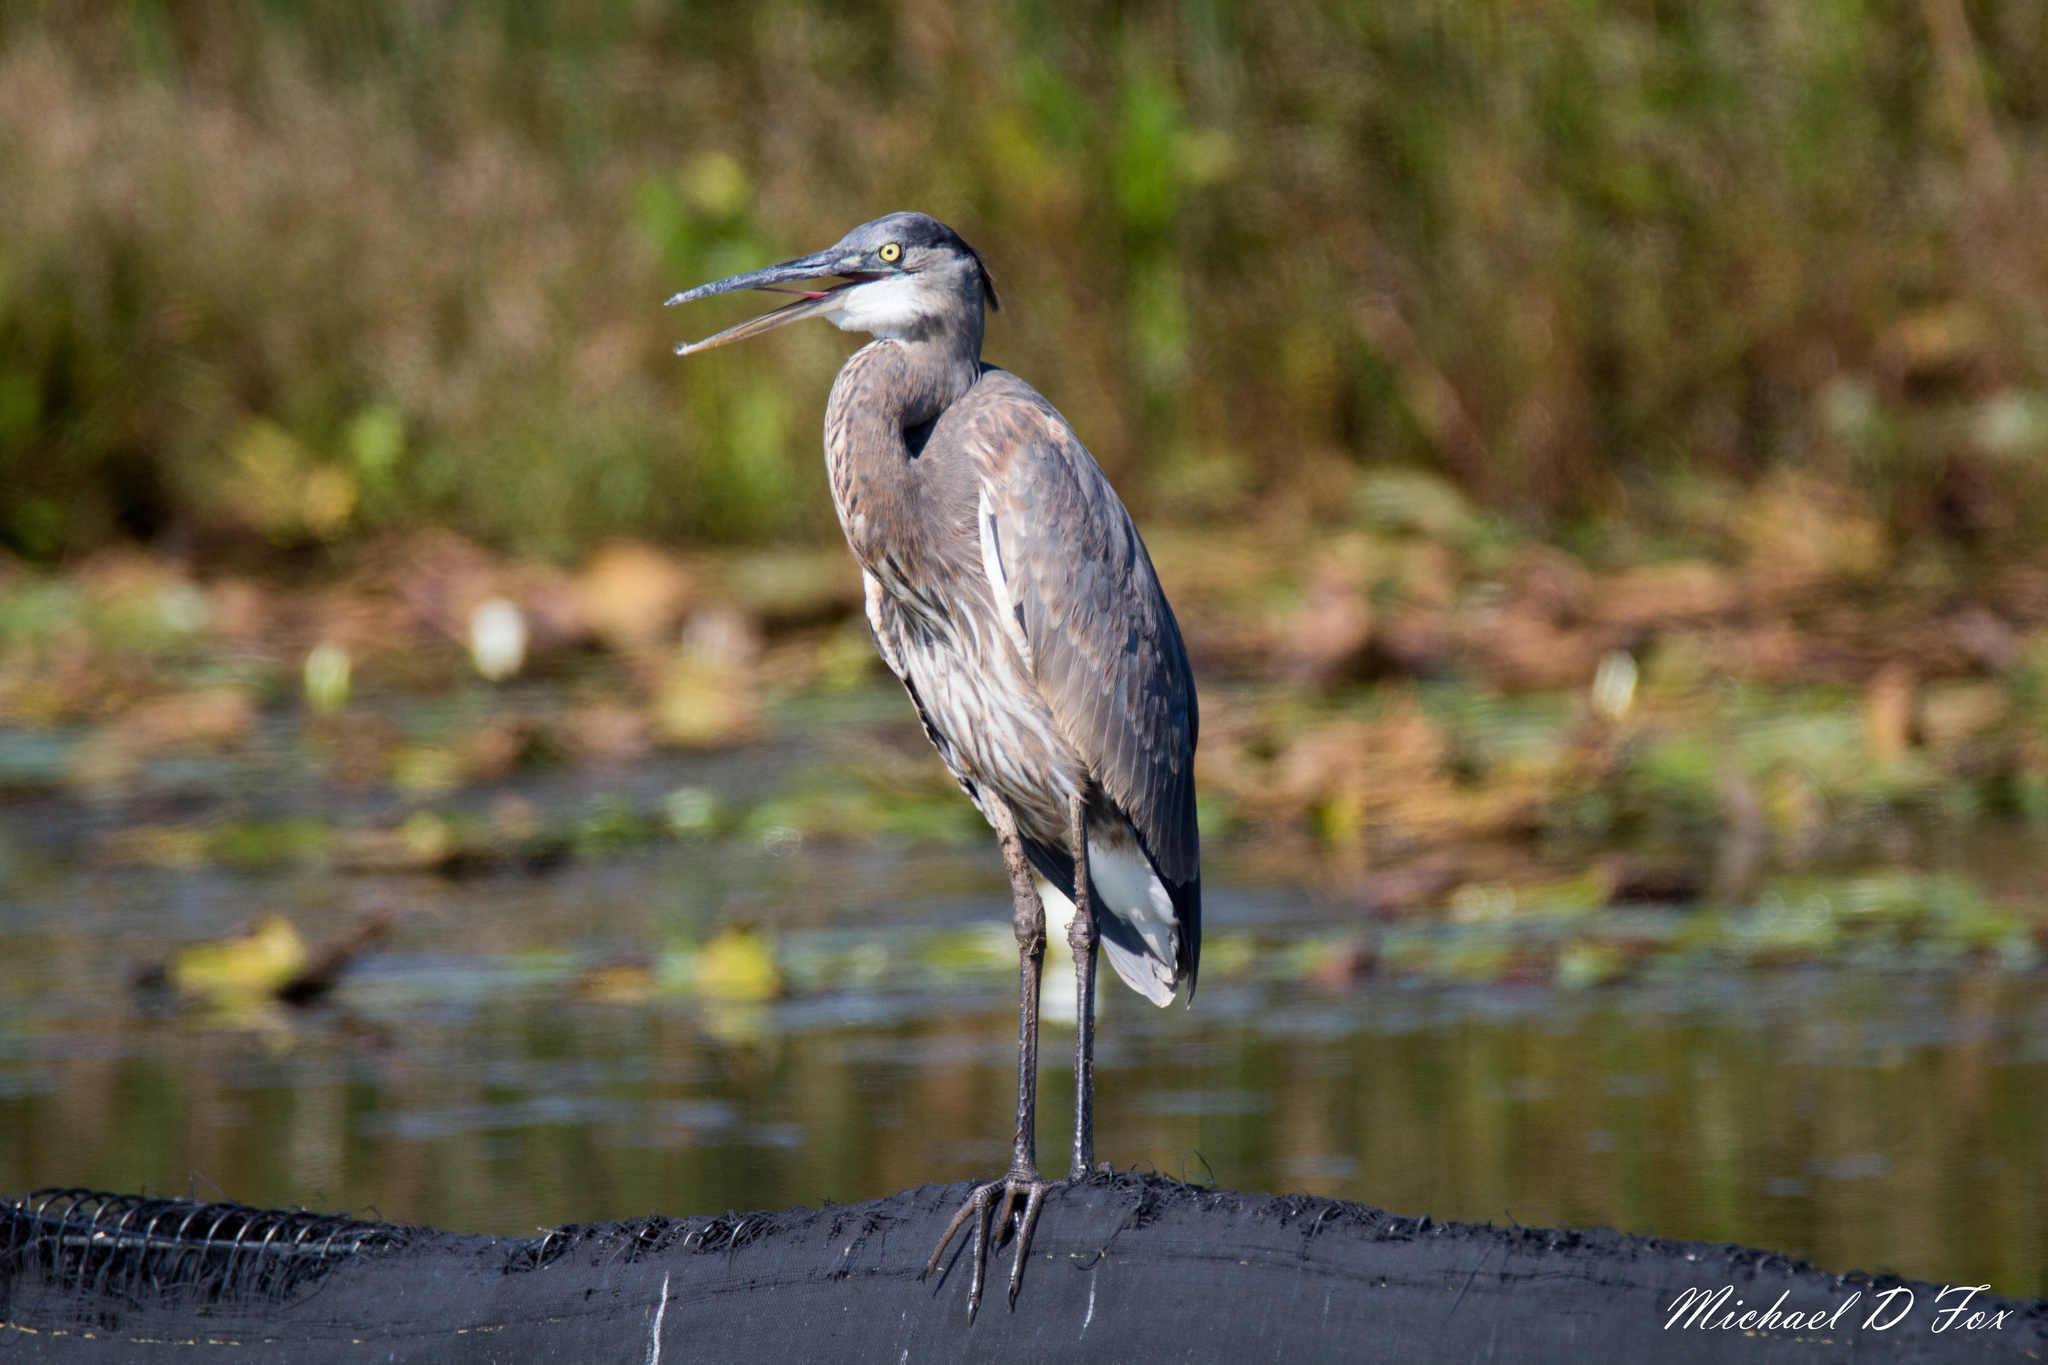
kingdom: Animalia
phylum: Chordata
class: Aves
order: Pelecaniformes
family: Ardeidae
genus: Ardea
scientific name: Ardea herodias
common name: Great blue heron
